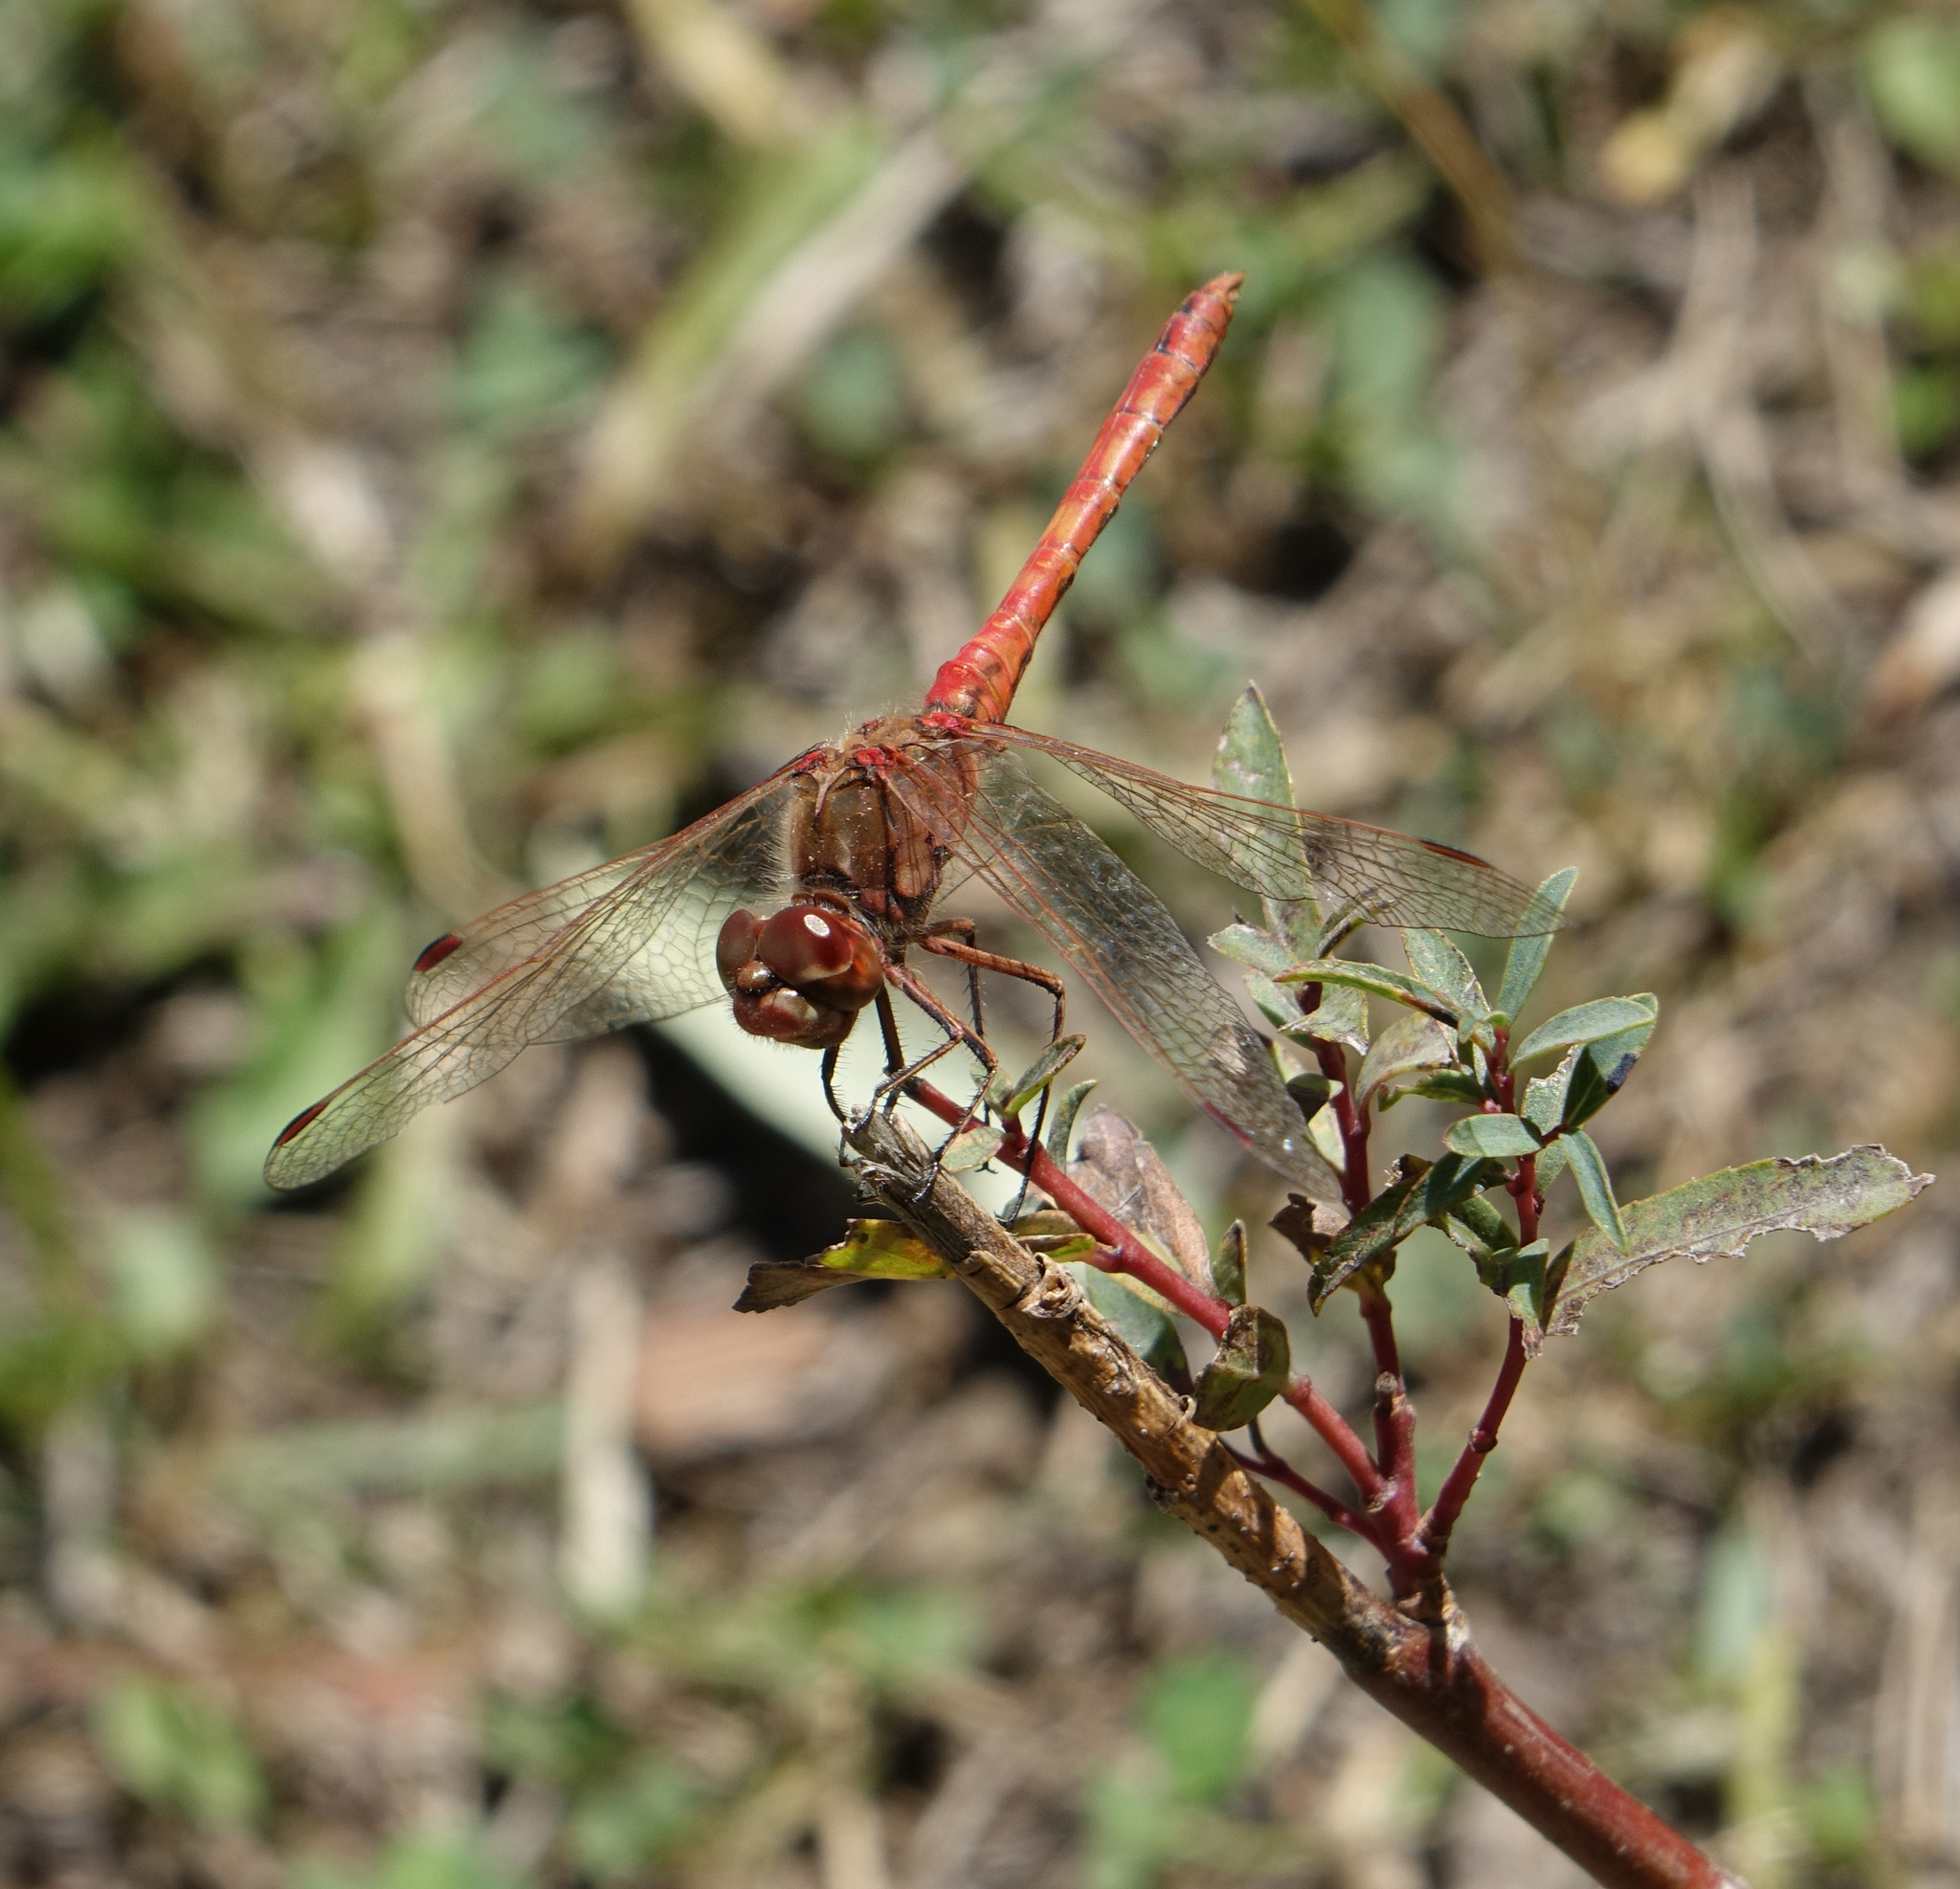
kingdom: Animalia
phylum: Arthropoda
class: Insecta
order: Odonata
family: Libellulidae
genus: Sympetrum
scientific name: Sympetrum vulgatum
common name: Vagrant darter
